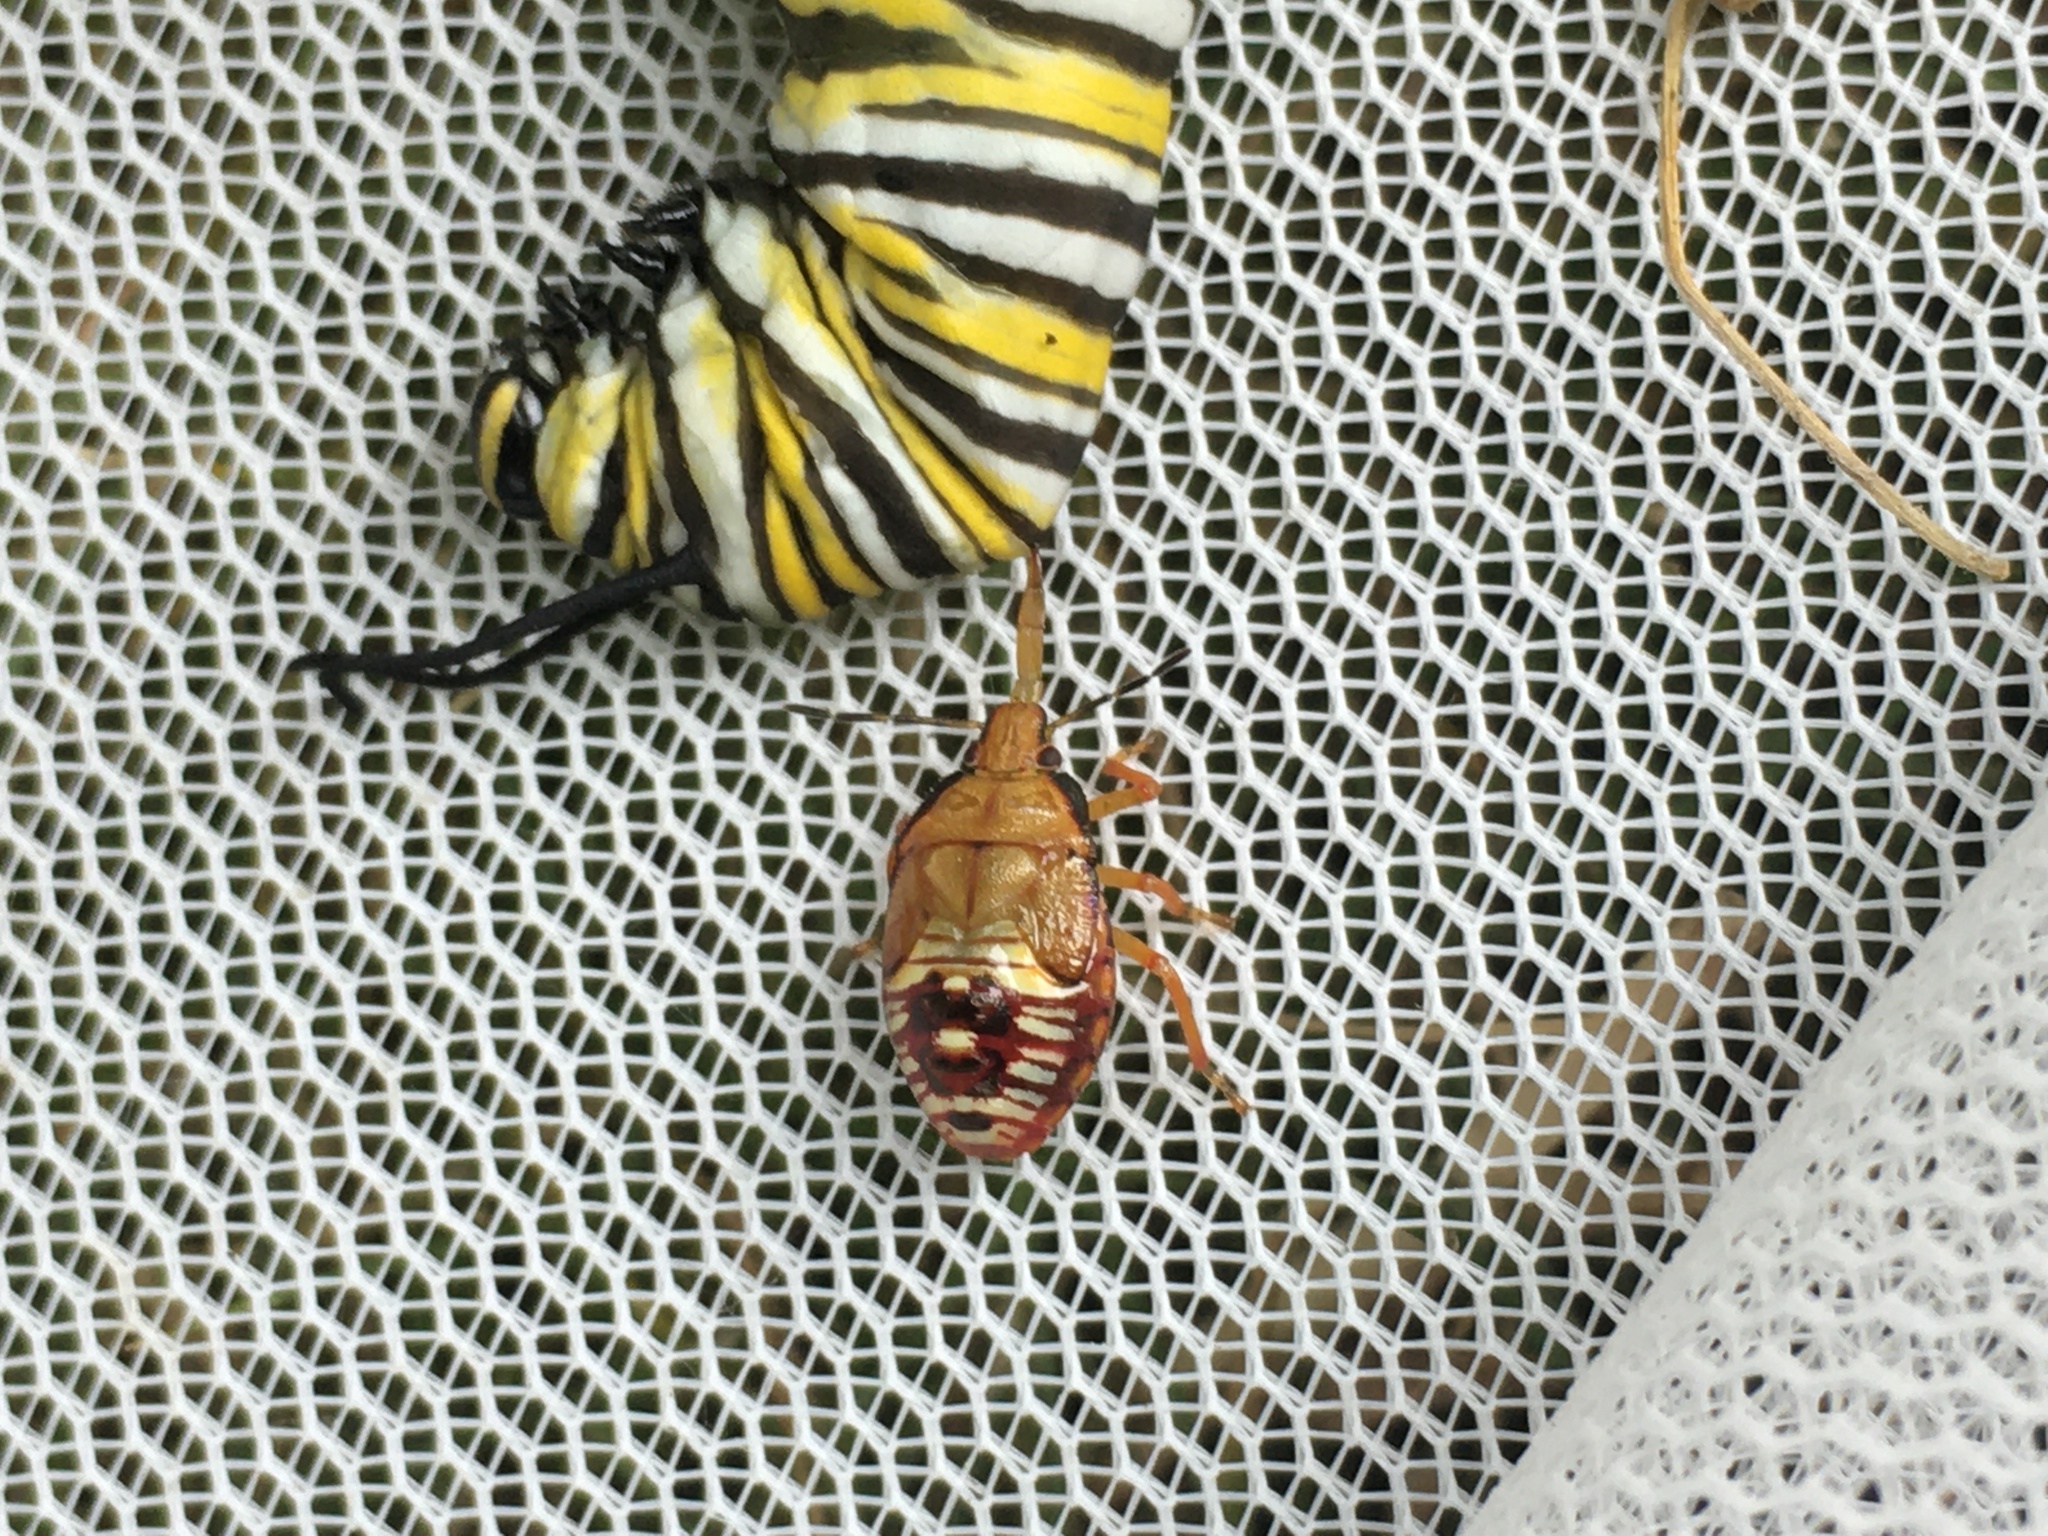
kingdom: Animalia
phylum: Arthropoda
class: Insecta
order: Hemiptera
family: Pentatomidae
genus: Podisus
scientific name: Podisus maculiventris
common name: Spined soldier bug
